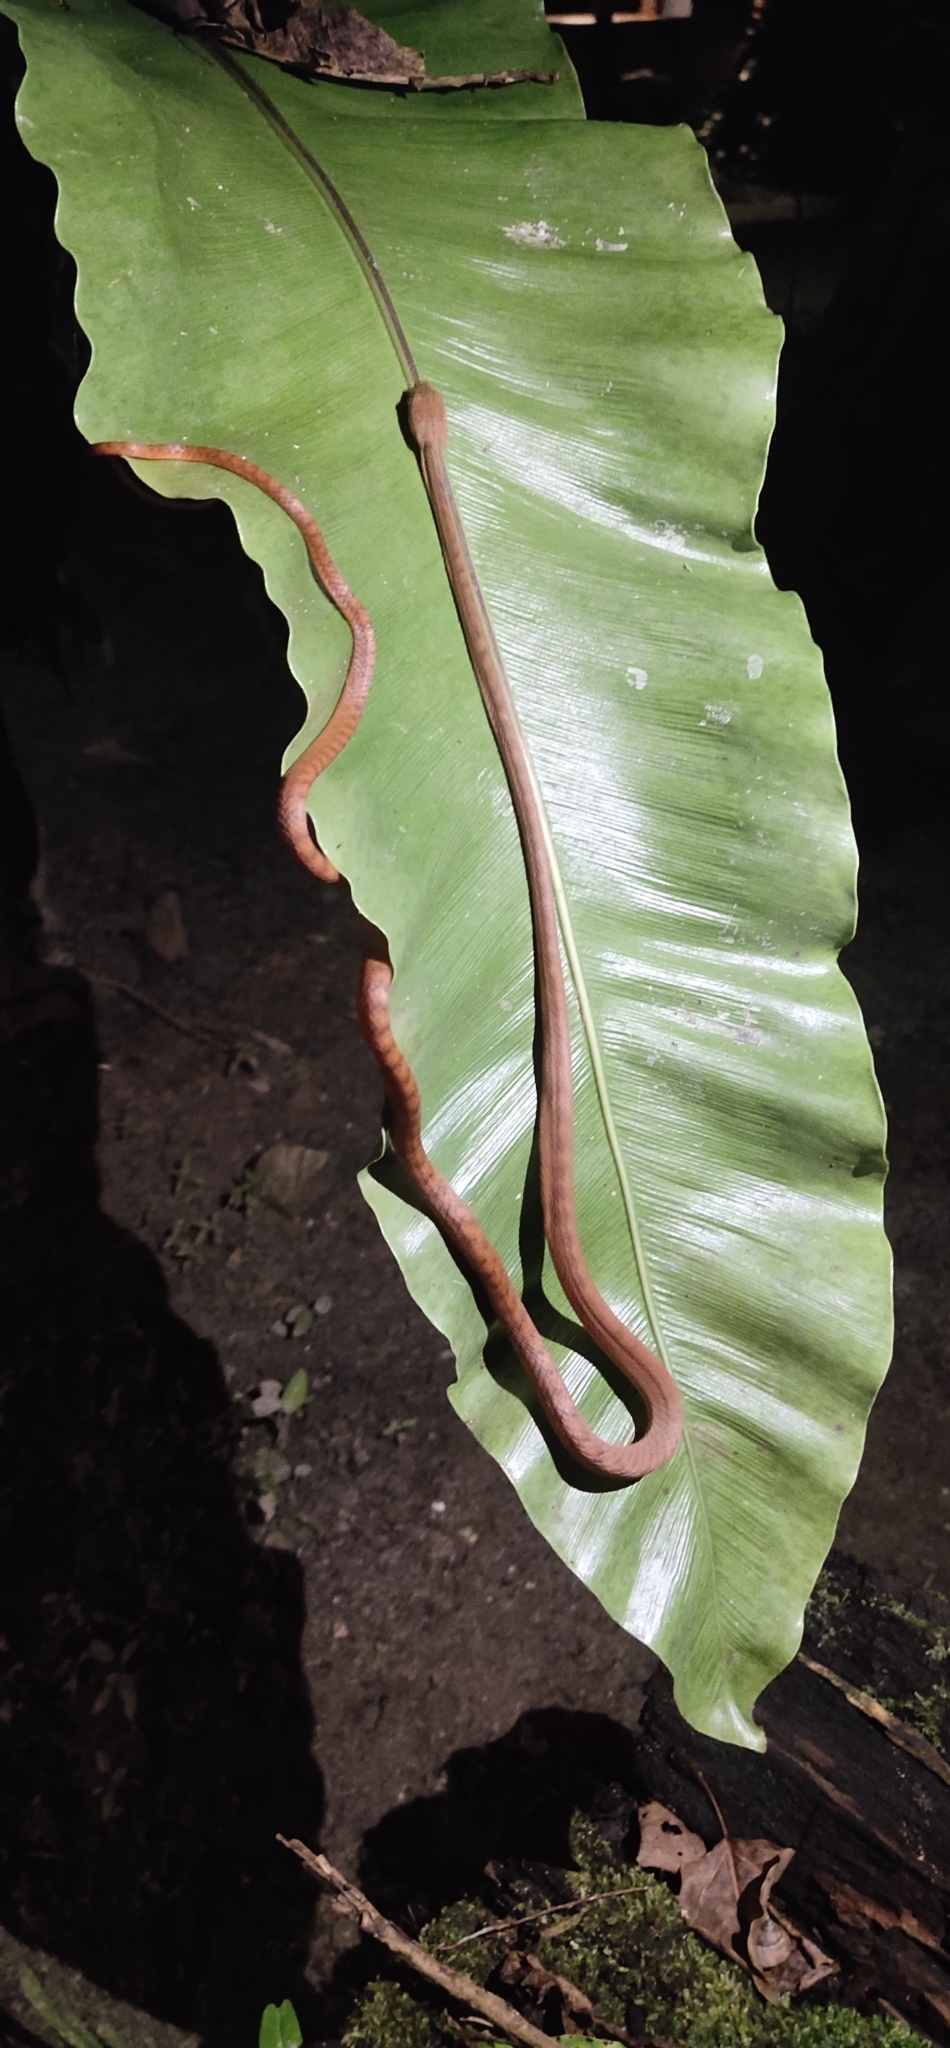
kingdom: Animalia
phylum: Chordata
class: Squamata
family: Colubridae
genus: Boiga
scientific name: Boiga andamanensis
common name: Andaman cat snake
